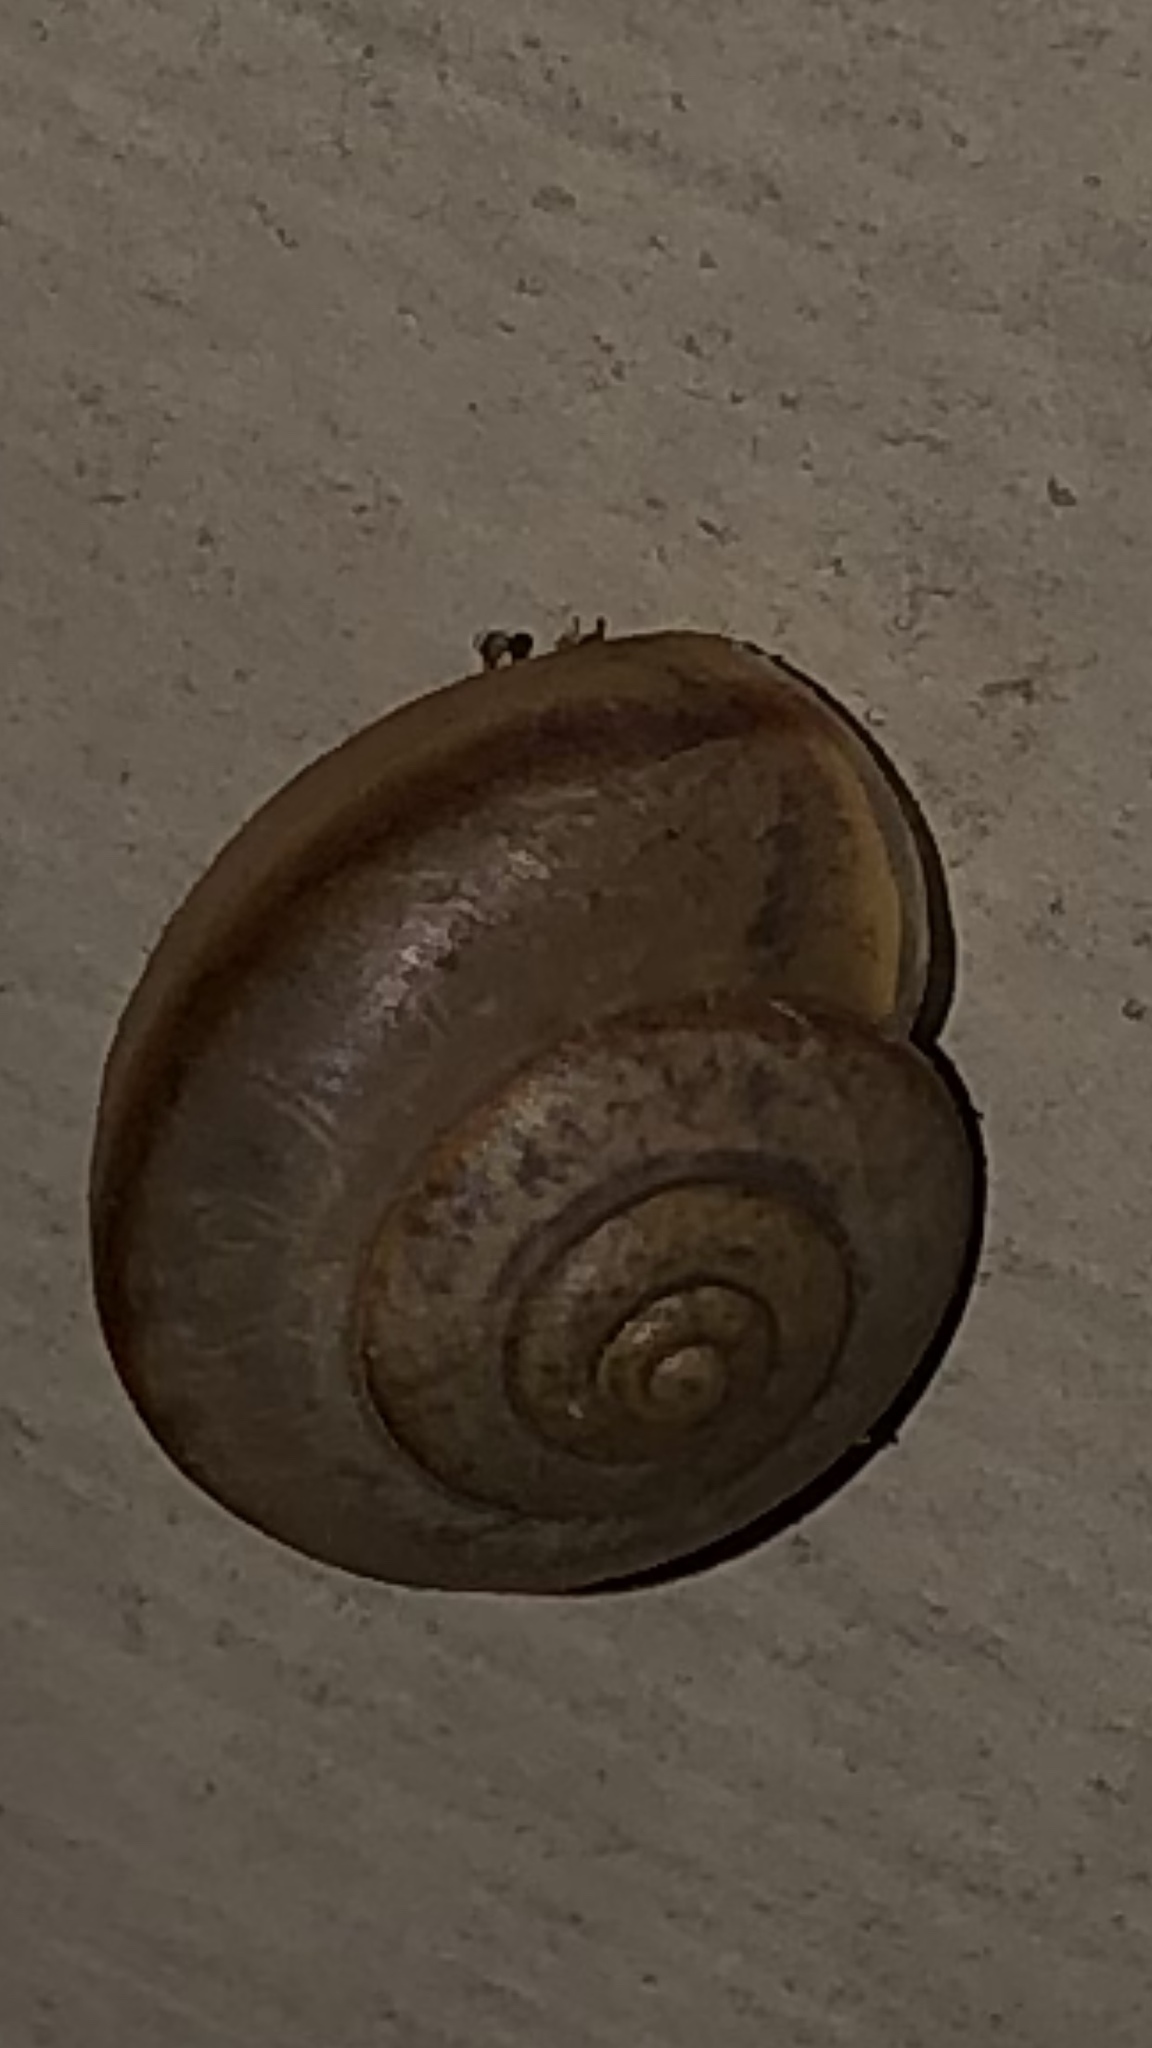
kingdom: Animalia
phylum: Mollusca
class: Gastropoda
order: Stylommatophora
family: Camaenidae
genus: Bradybaena
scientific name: Bradybaena similaris
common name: Asian trampsnail
